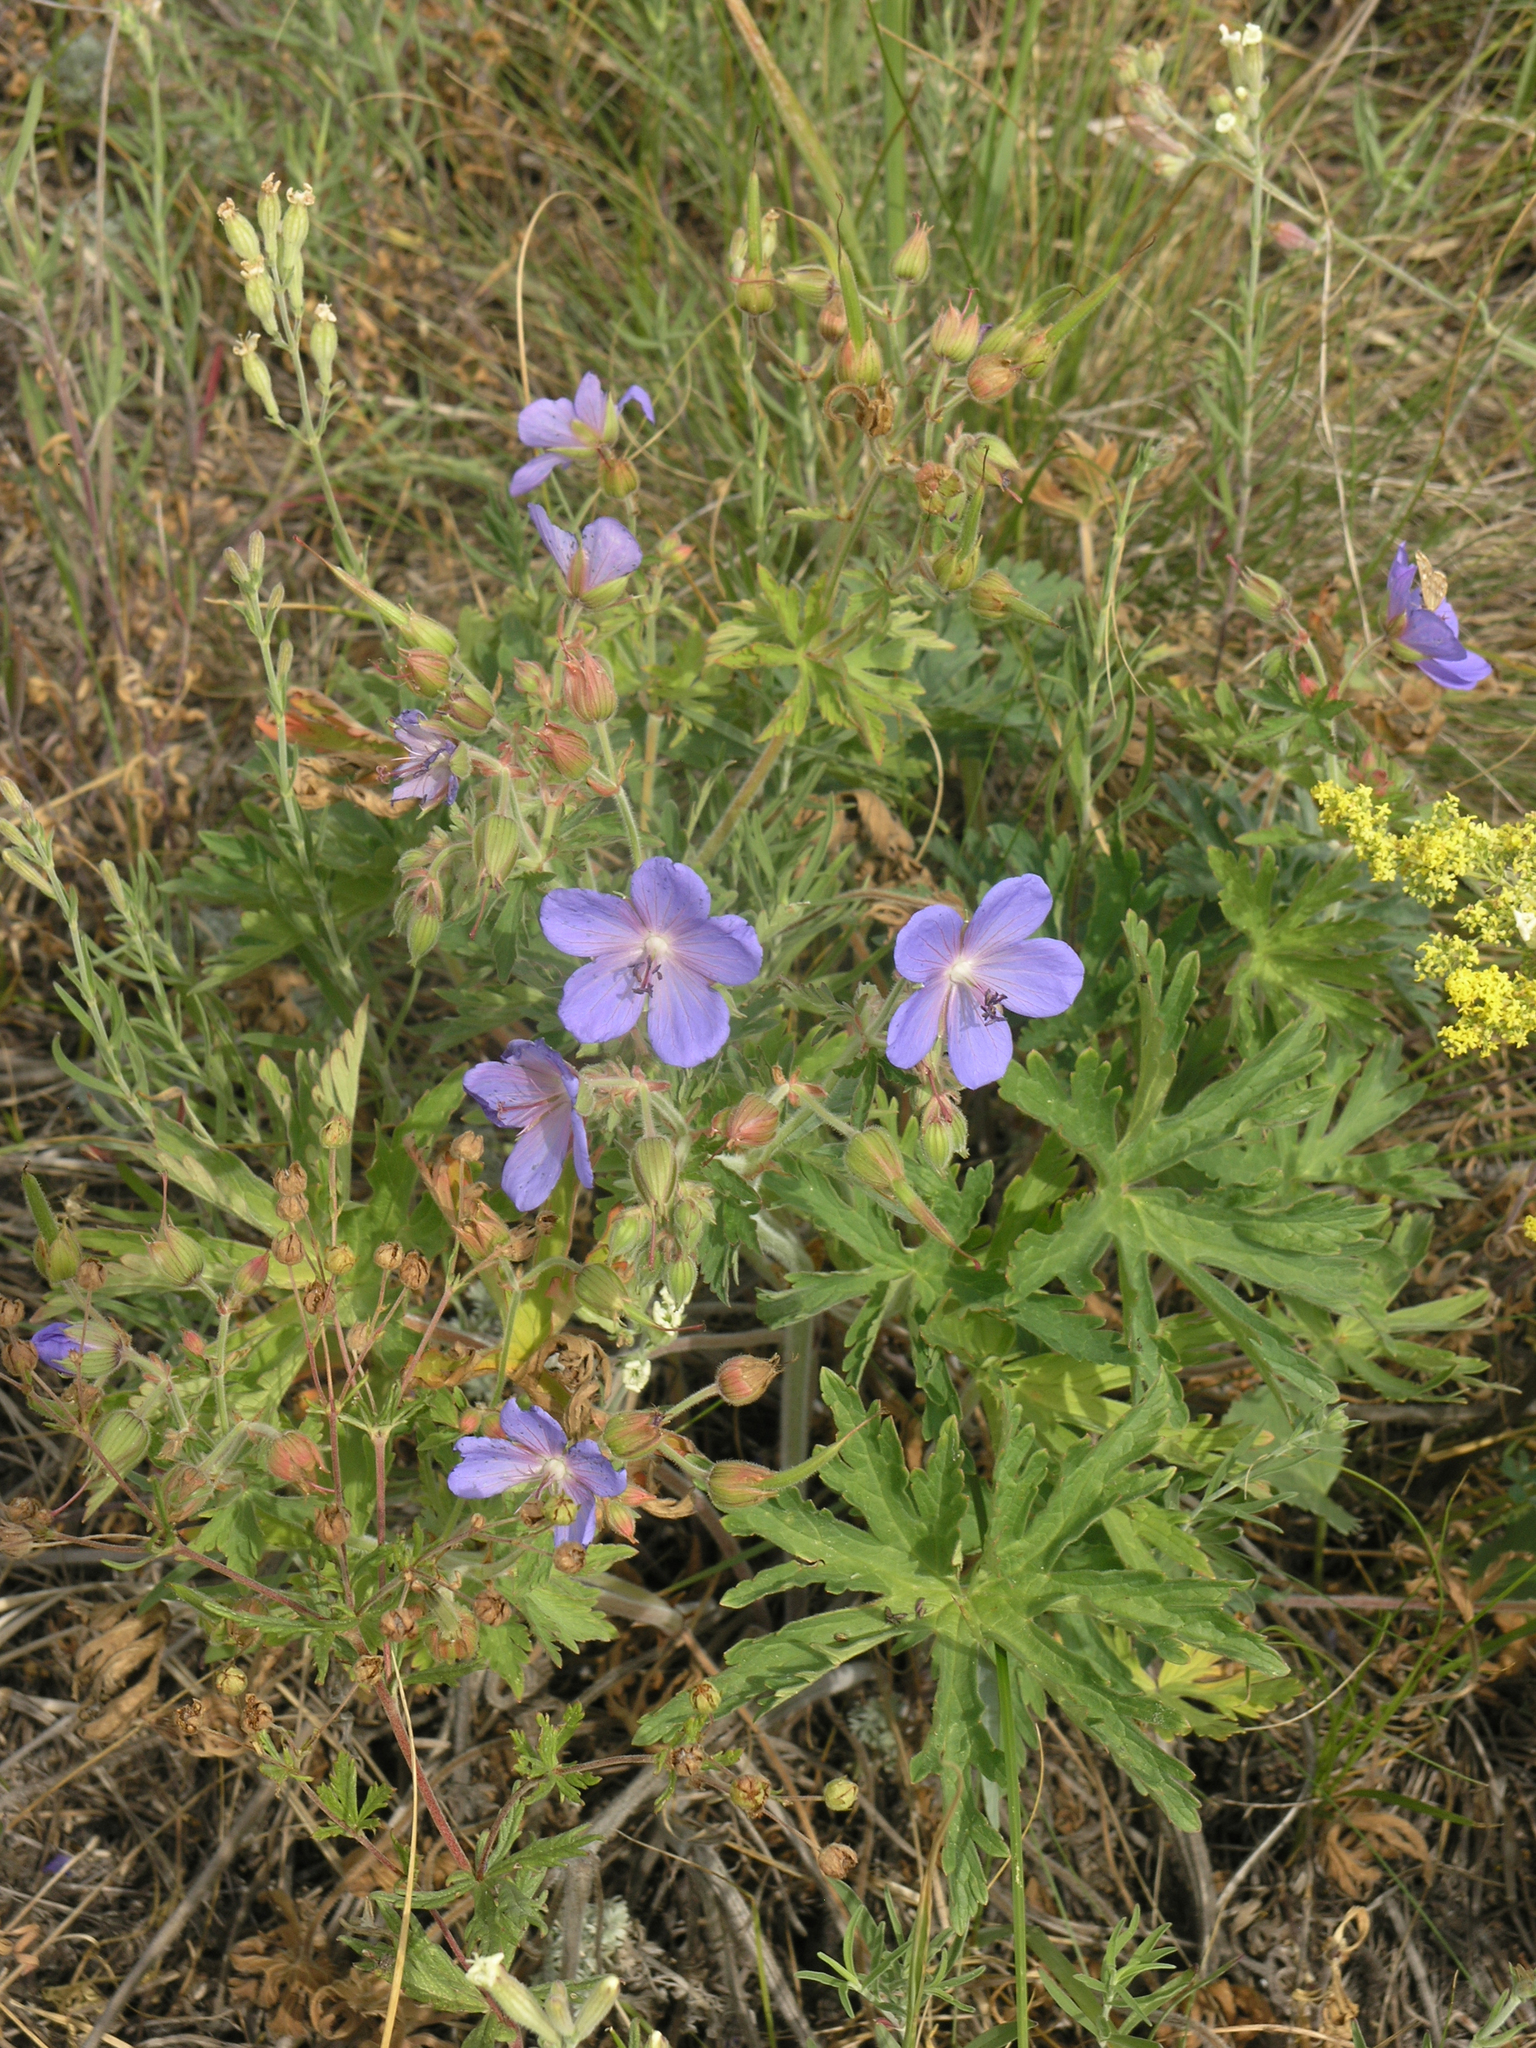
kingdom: Plantae
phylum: Tracheophyta
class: Magnoliopsida
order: Geraniales
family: Geraniaceae
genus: Geranium
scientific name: Geranium pratense
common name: Meadow crane's-bill
